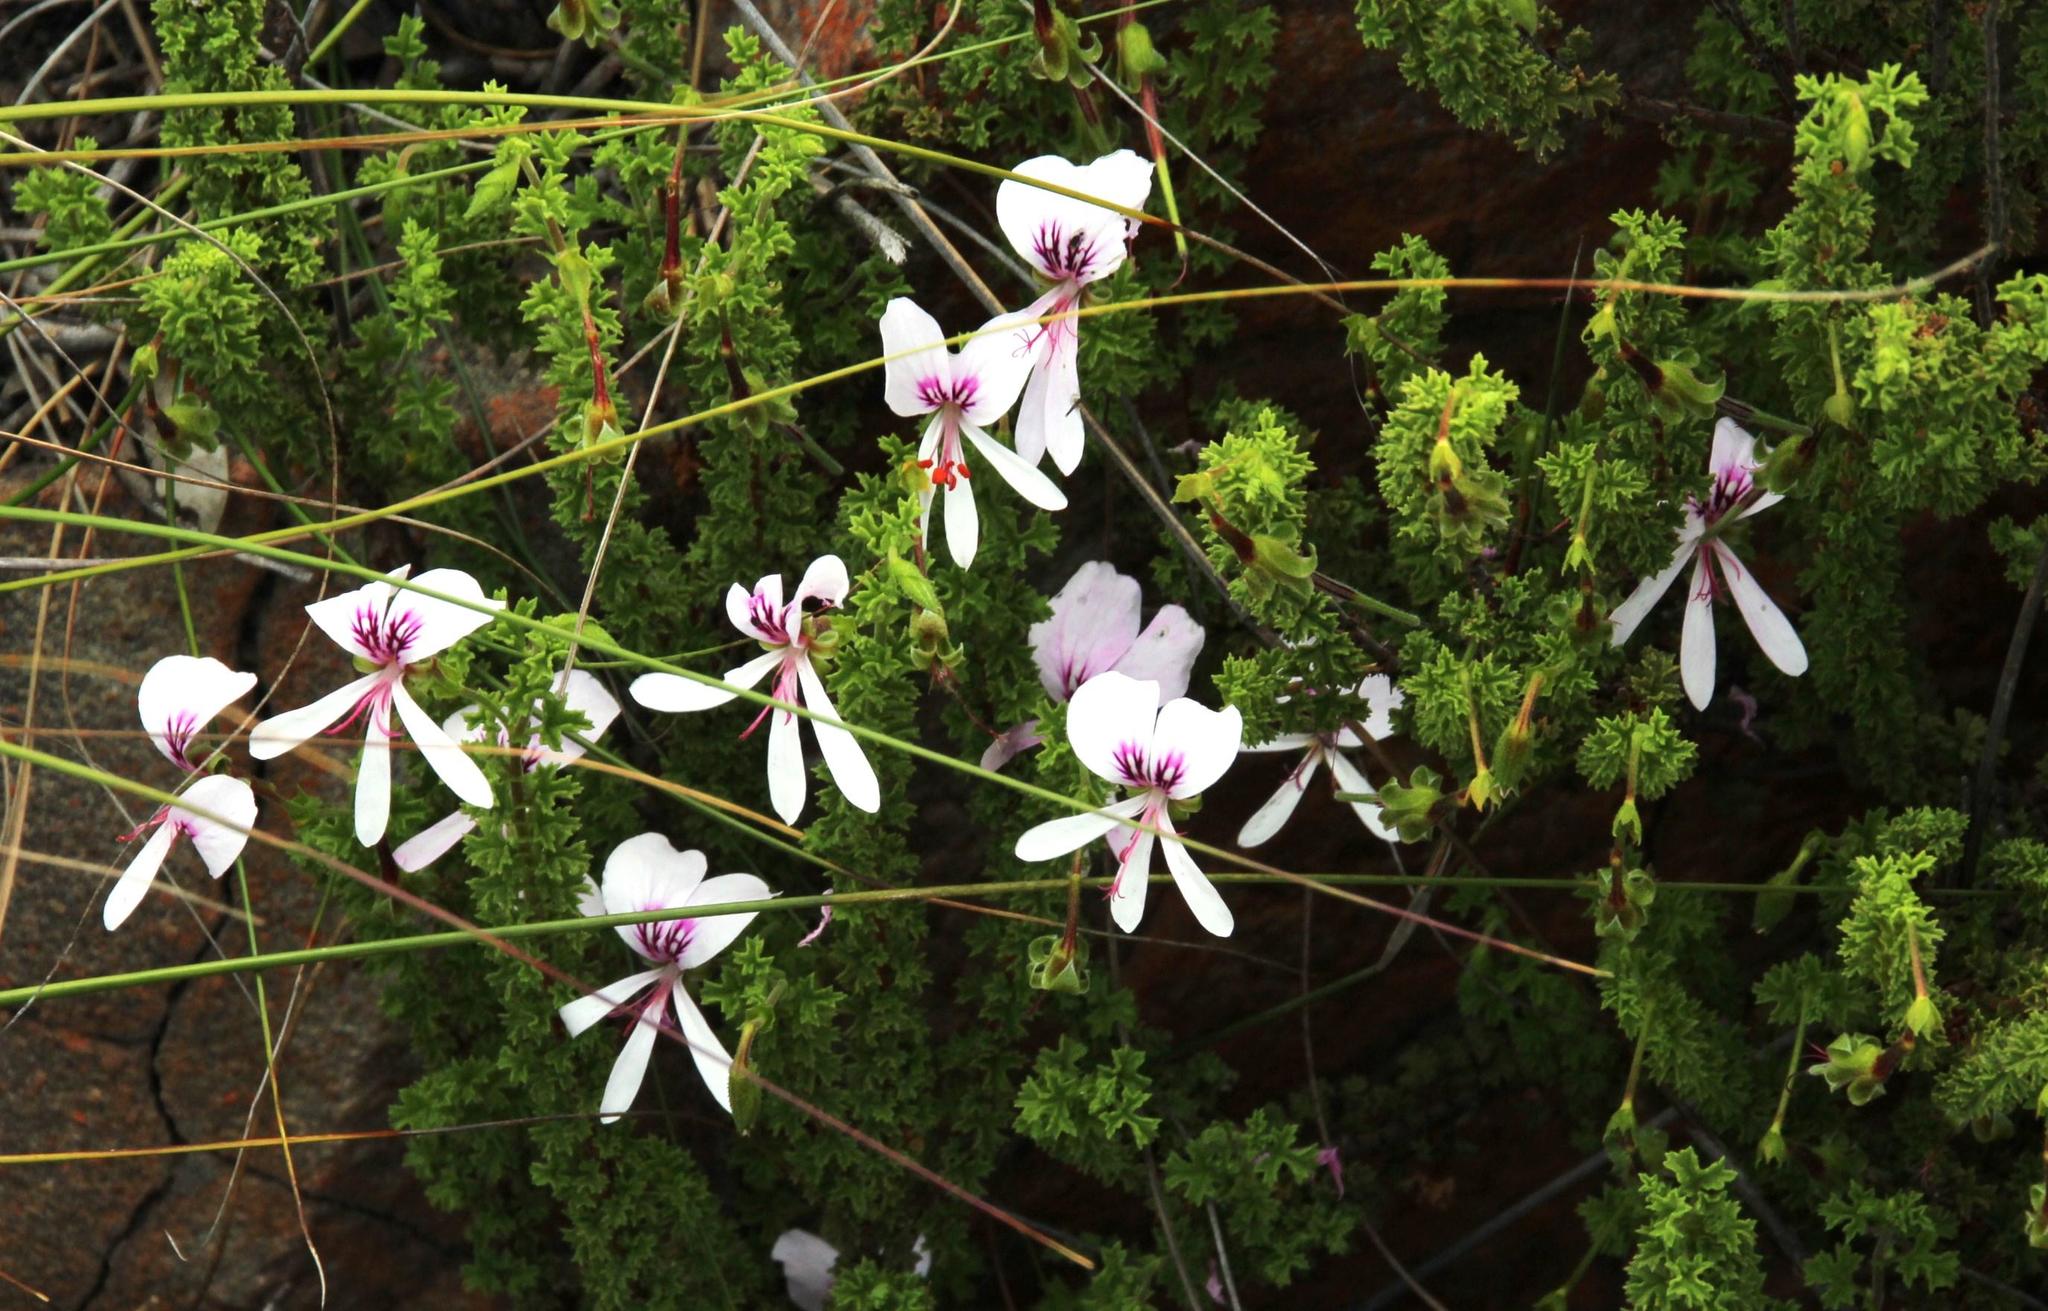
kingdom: Plantae
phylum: Tracheophyta
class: Magnoliopsida
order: Geraniales
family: Geraniaceae
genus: Pelargonium
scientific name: Pelargonium hermaniifolium
